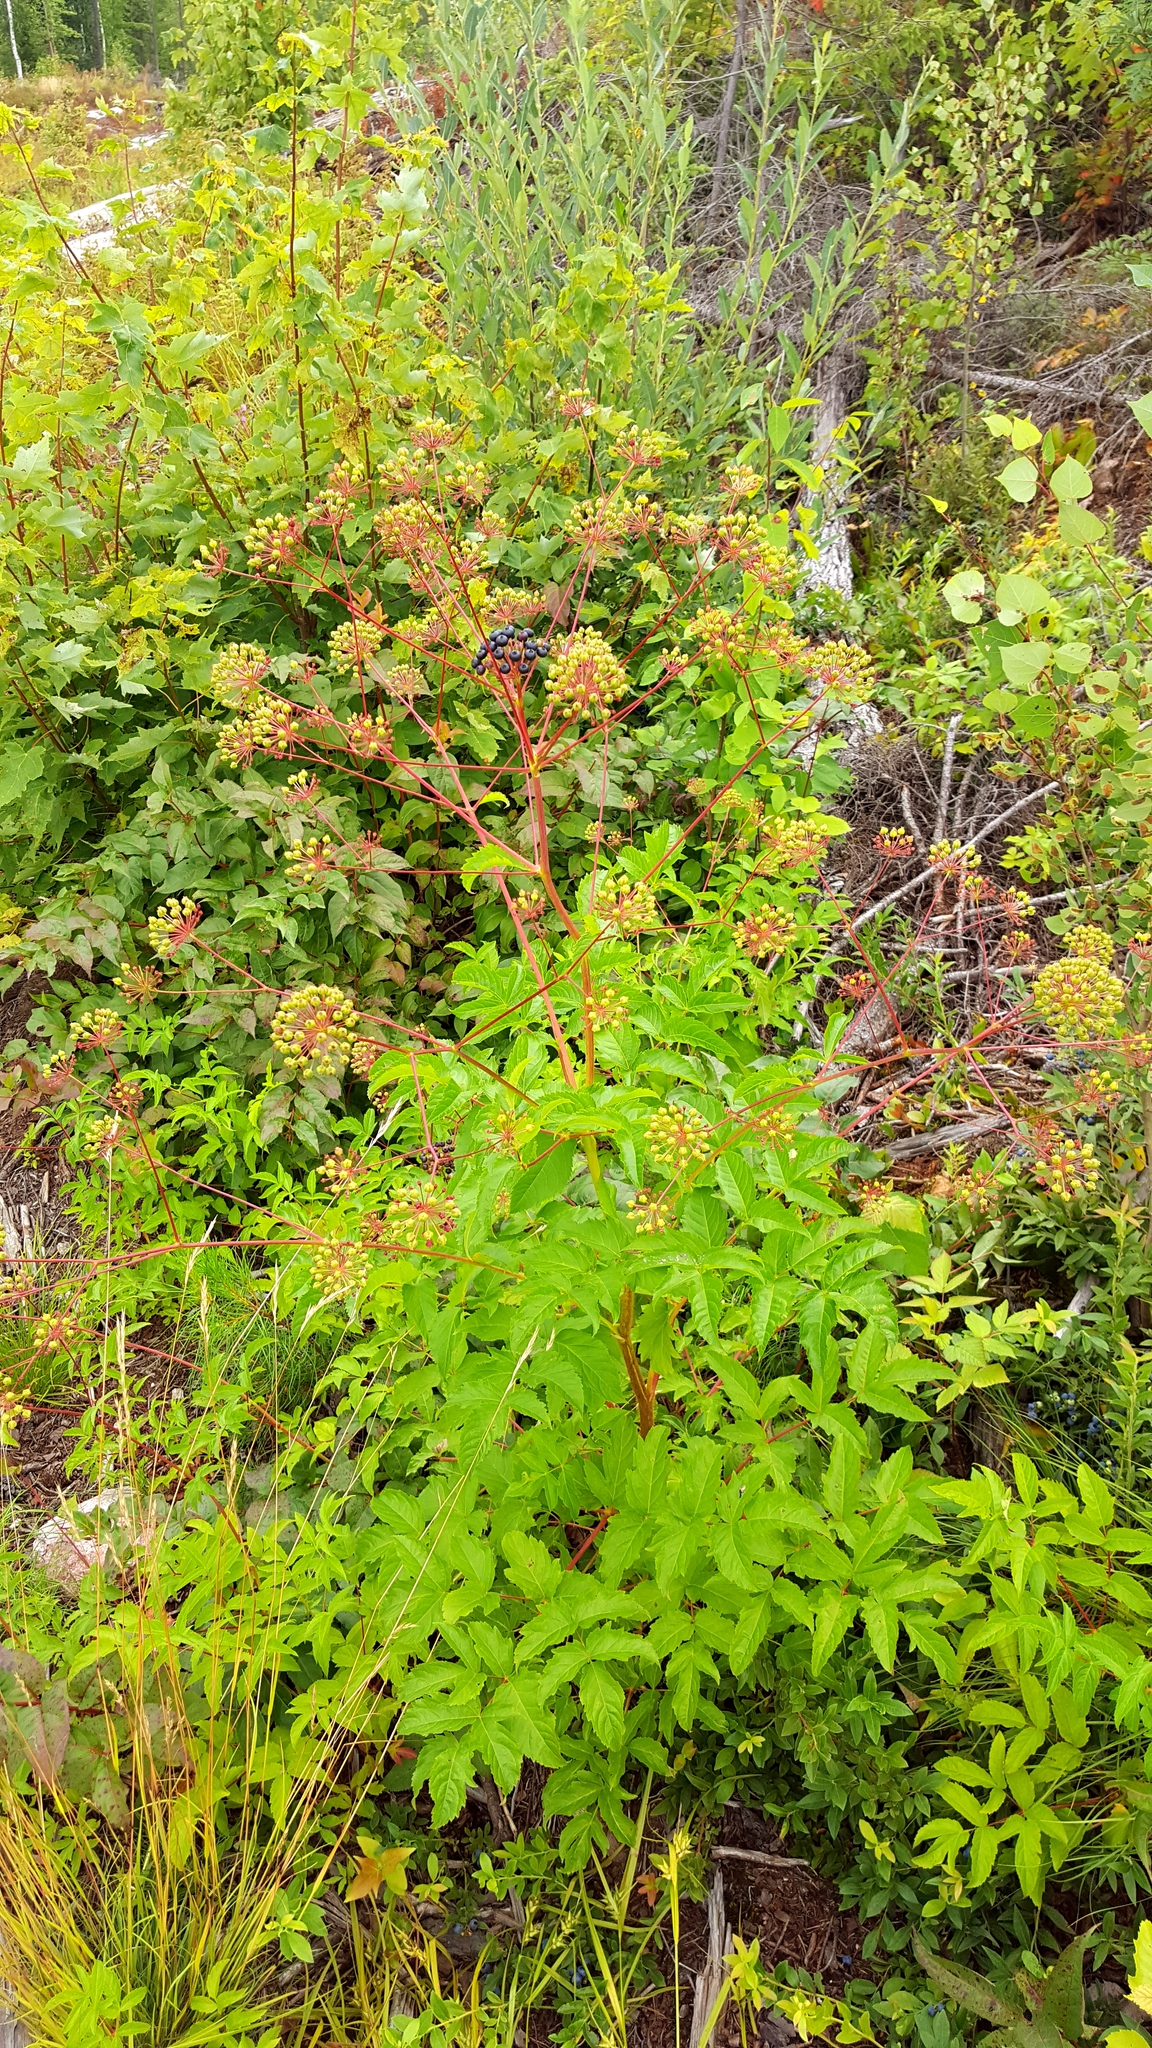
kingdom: Plantae
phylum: Tracheophyta
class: Magnoliopsida
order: Apiales
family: Araliaceae
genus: Aralia
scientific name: Aralia hispida
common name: Bristly sarsaparilla
